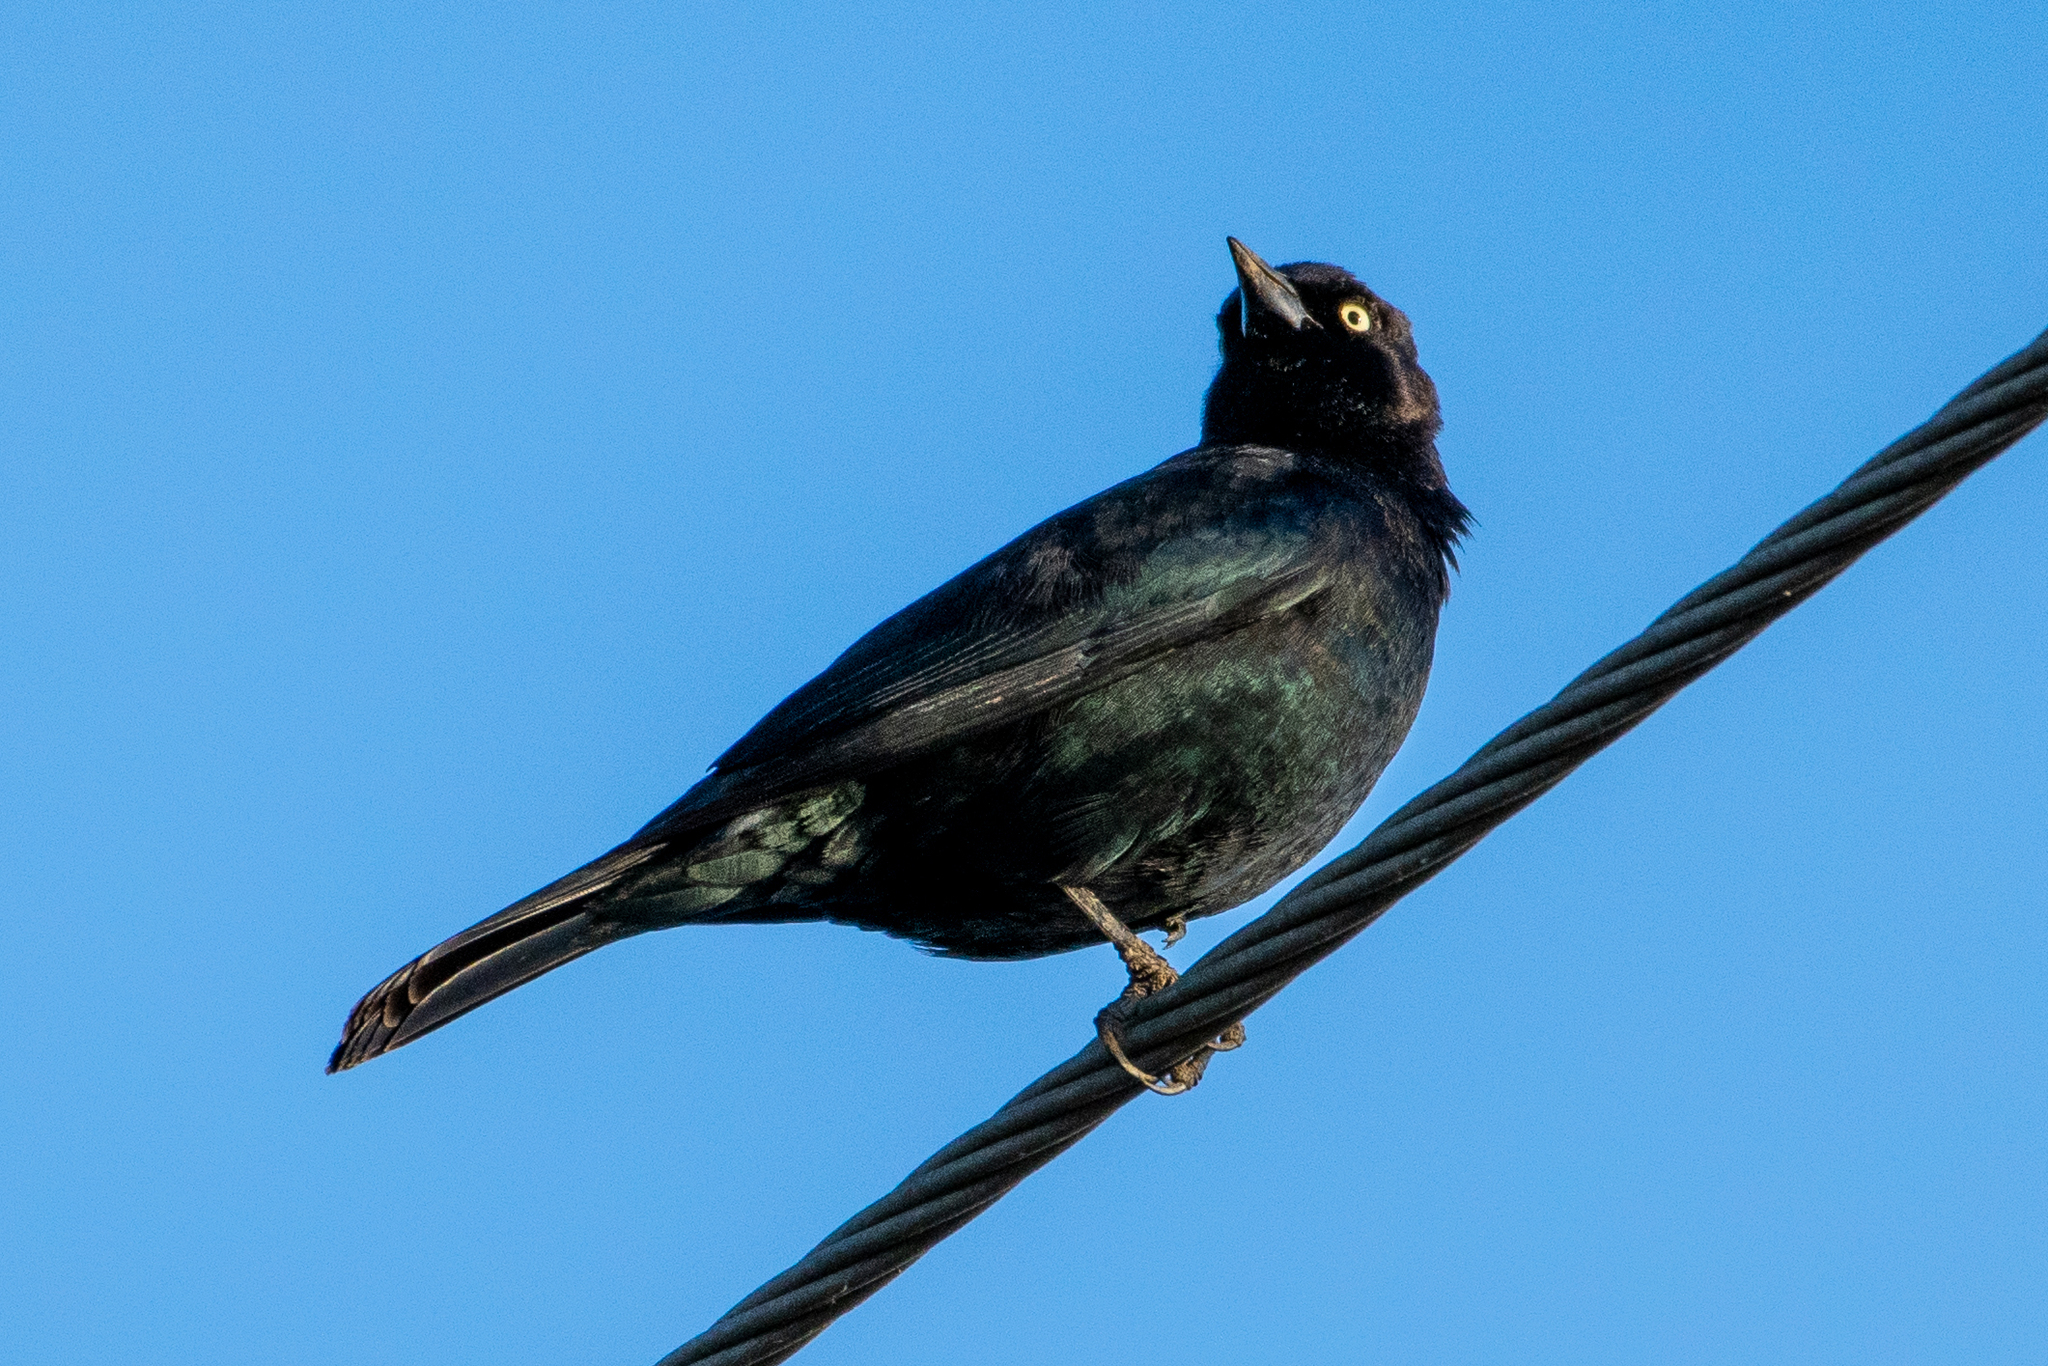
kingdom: Animalia
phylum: Chordata
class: Aves
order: Passeriformes
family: Icteridae
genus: Euphagus
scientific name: Euphagus cyanocephalus
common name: Brewer's blackbird
